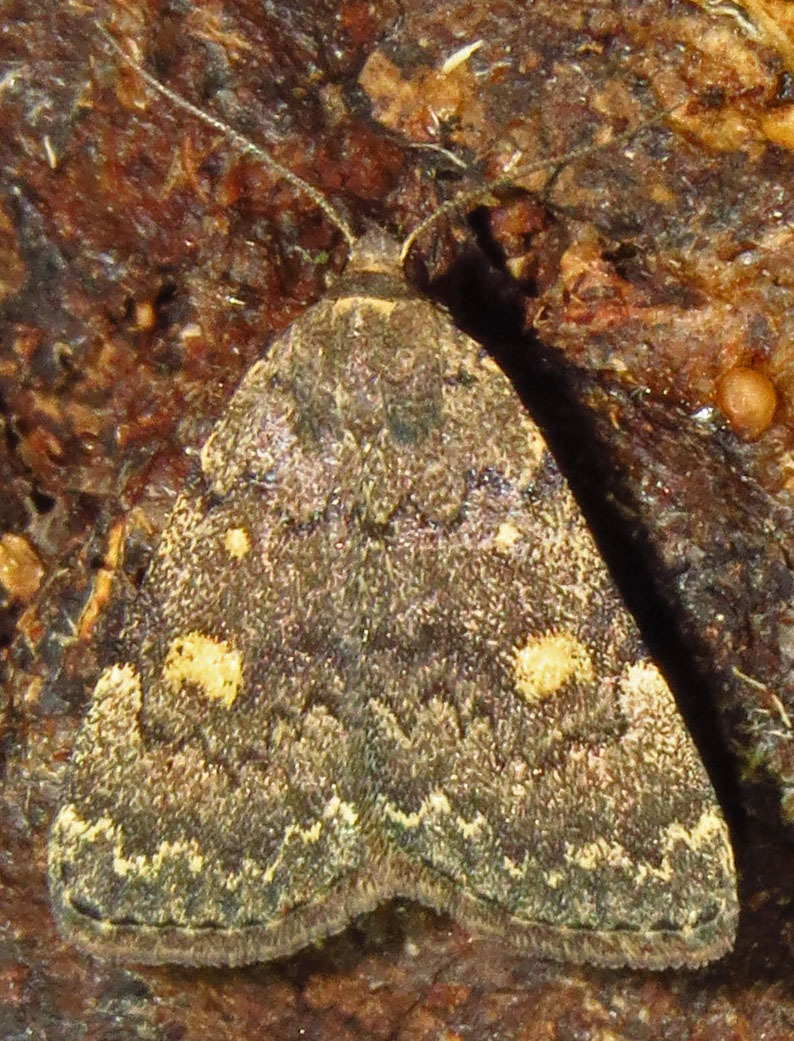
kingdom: Animalia
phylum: Arthropoda
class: Insecta
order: Lepidoptera
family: Erebidae
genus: Idia
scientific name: Idia aemula
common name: Common idia moth
